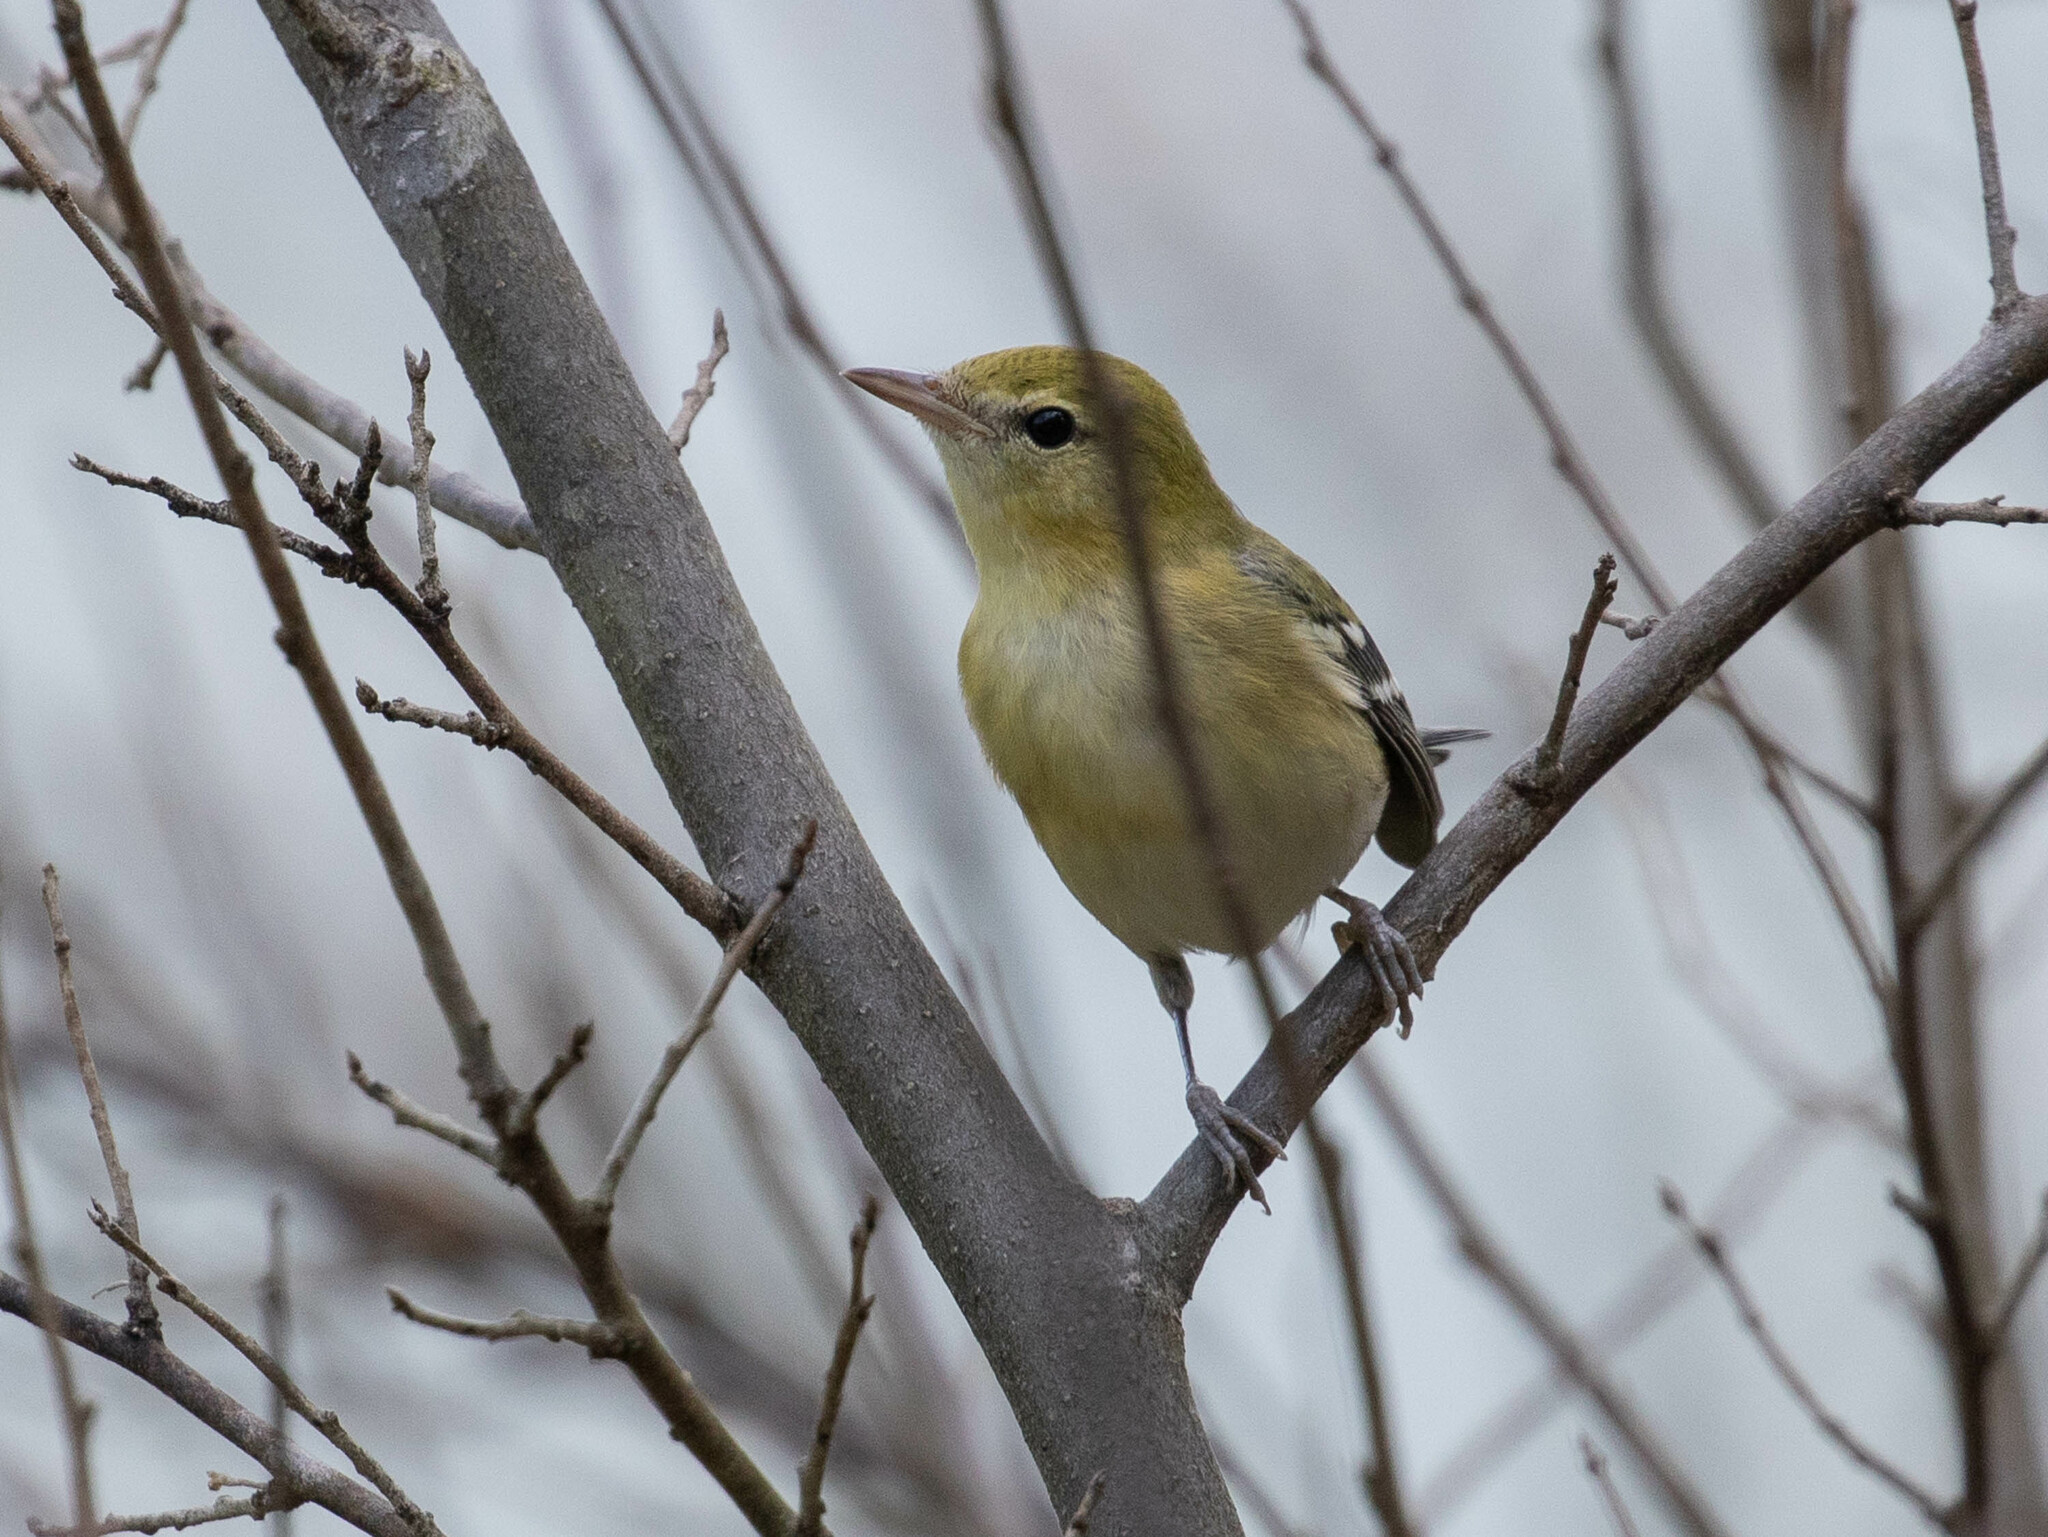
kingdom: Animalia
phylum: Chordata
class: Aves
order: Passeriformes
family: Parulidae
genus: Setophaga
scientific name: Setophaga castanea
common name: Bay-breasted warbler
